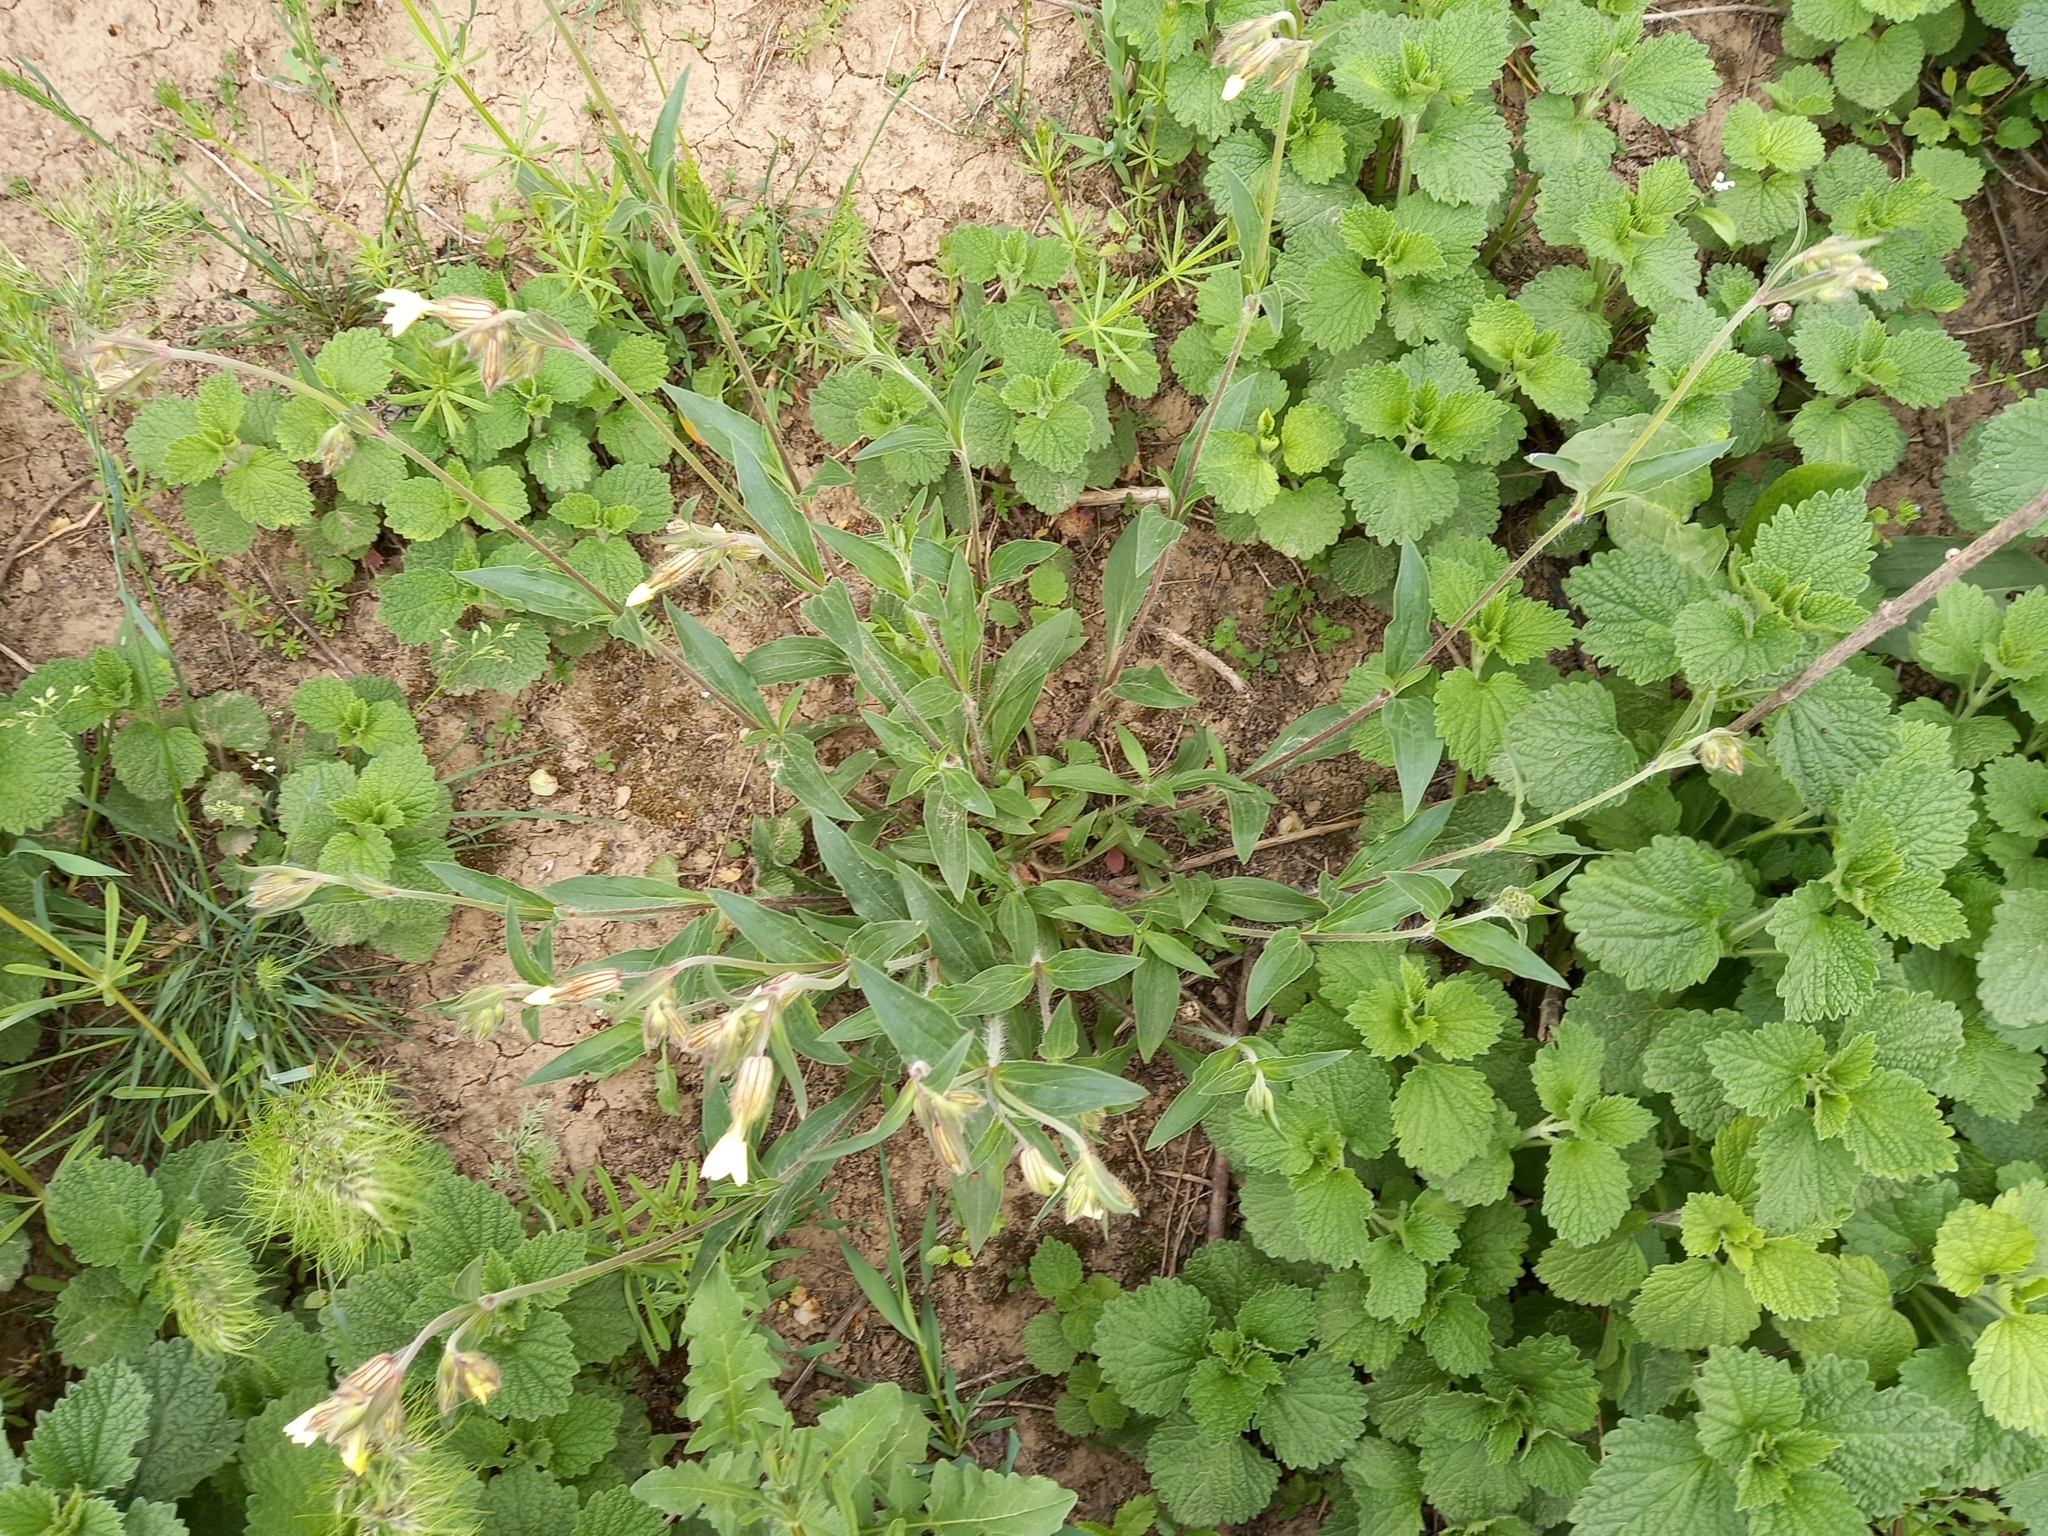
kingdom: Plantae
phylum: Tracheophyta
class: Magnoliopsida
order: Caryophyllales
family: Caryophyllaceae
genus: Silene
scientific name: Silene latifolia
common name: White campion
